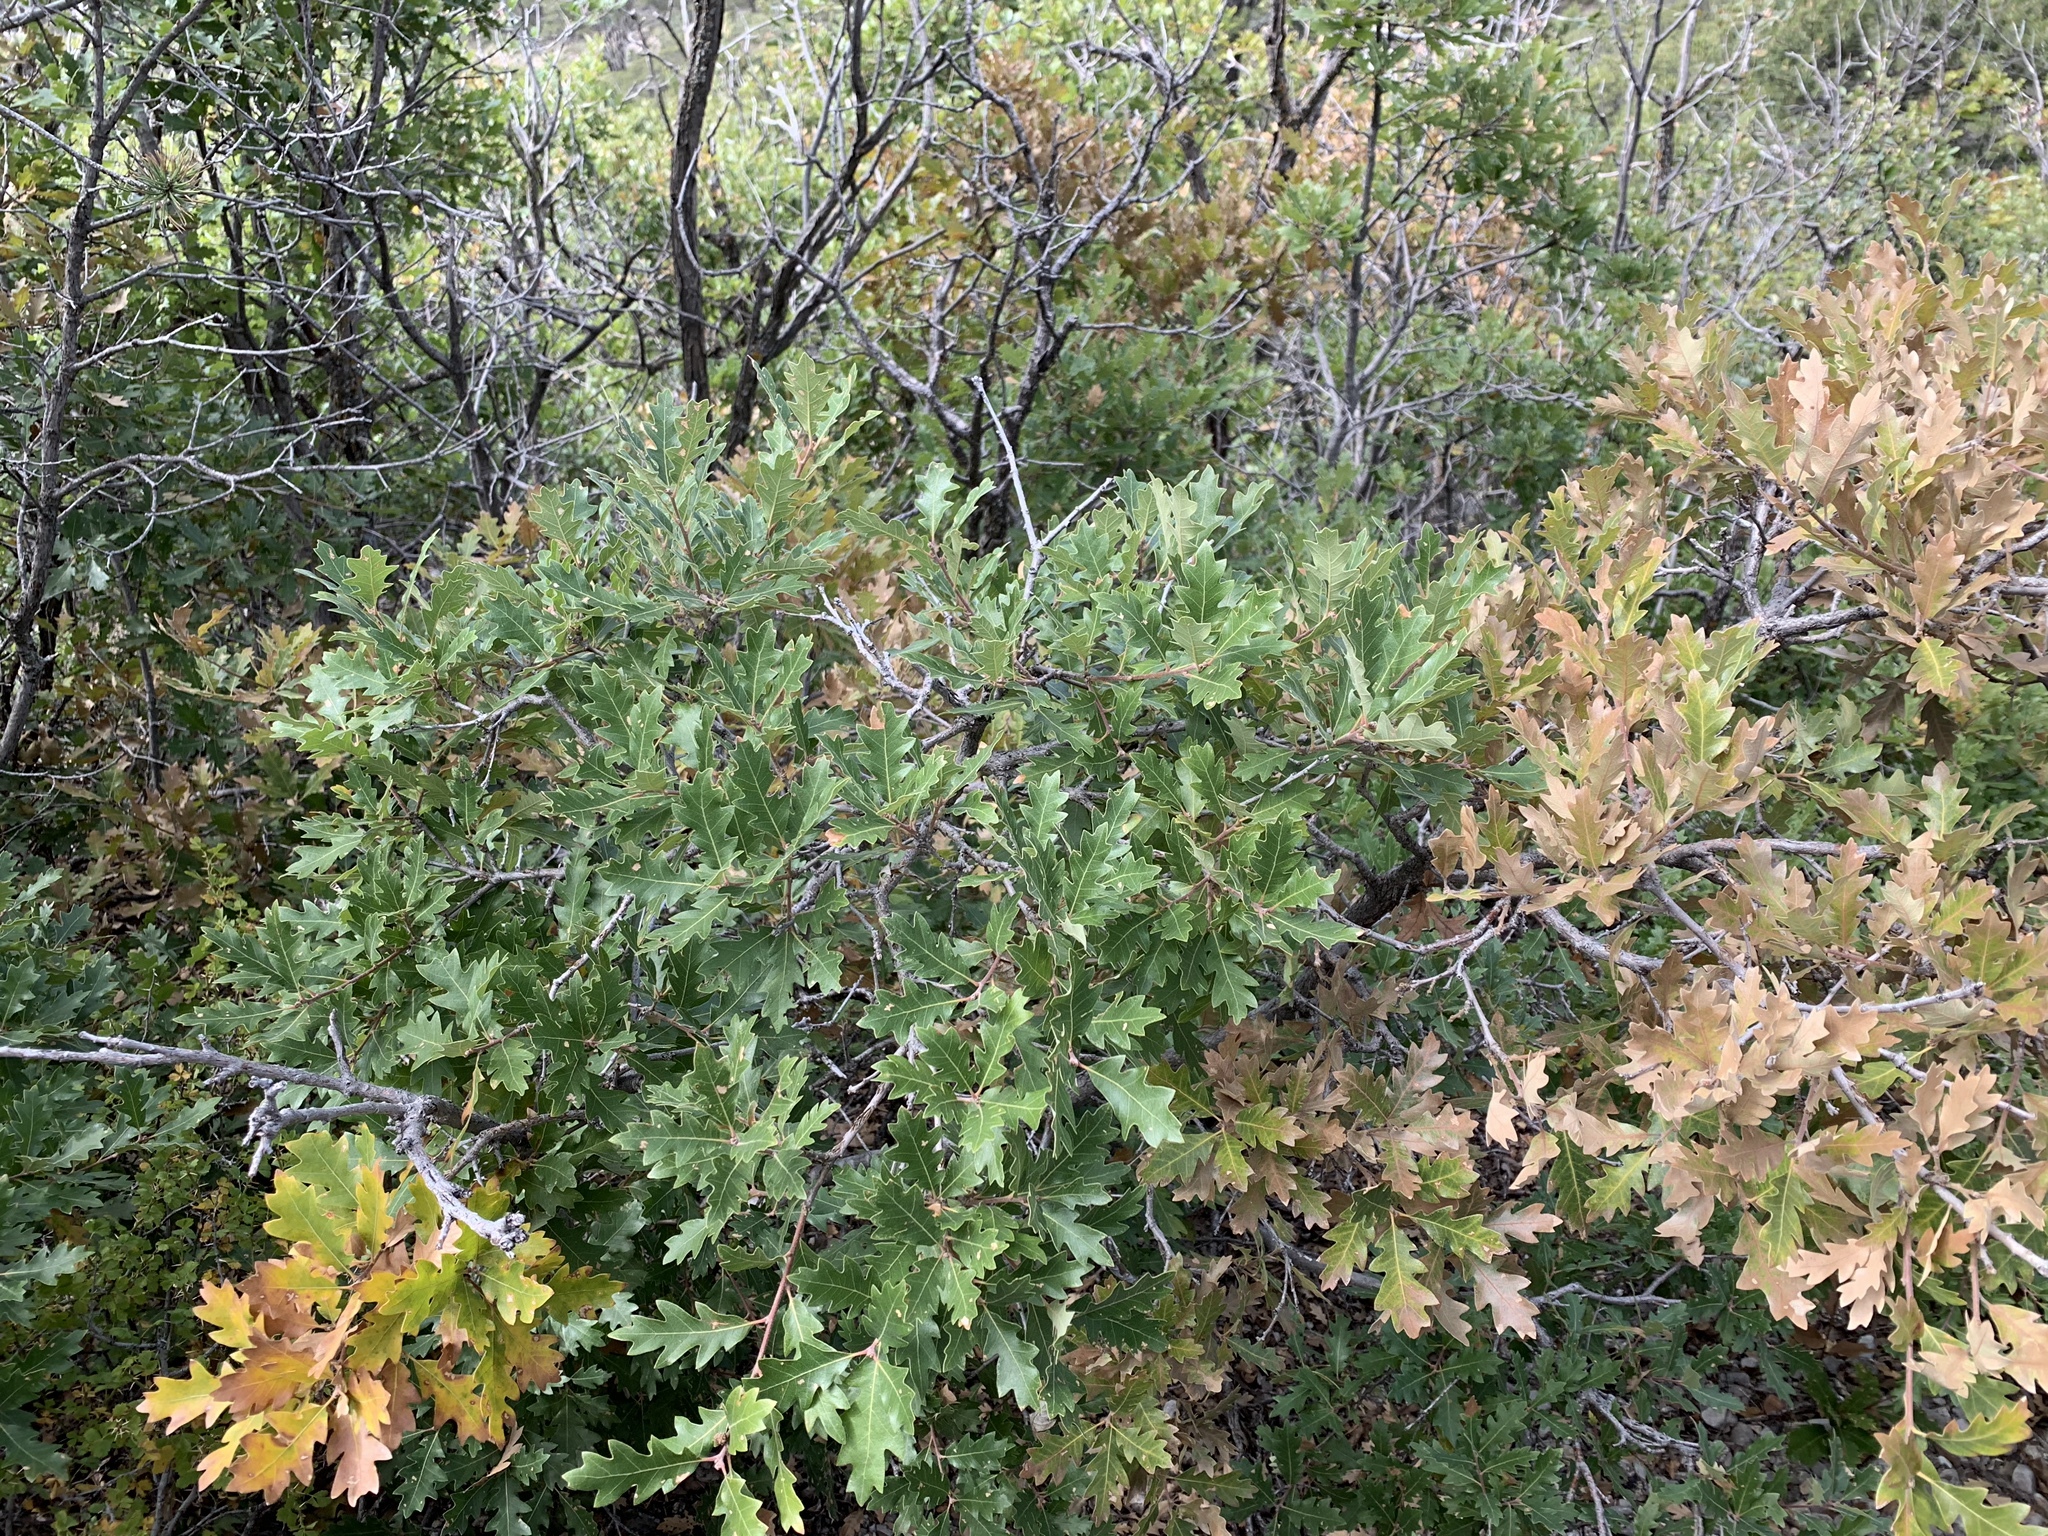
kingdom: Plantae
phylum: Tracheophyta
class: Magnoliopsida
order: Fagales
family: Fagaceae
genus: Quercus
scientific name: Quercus undulata
